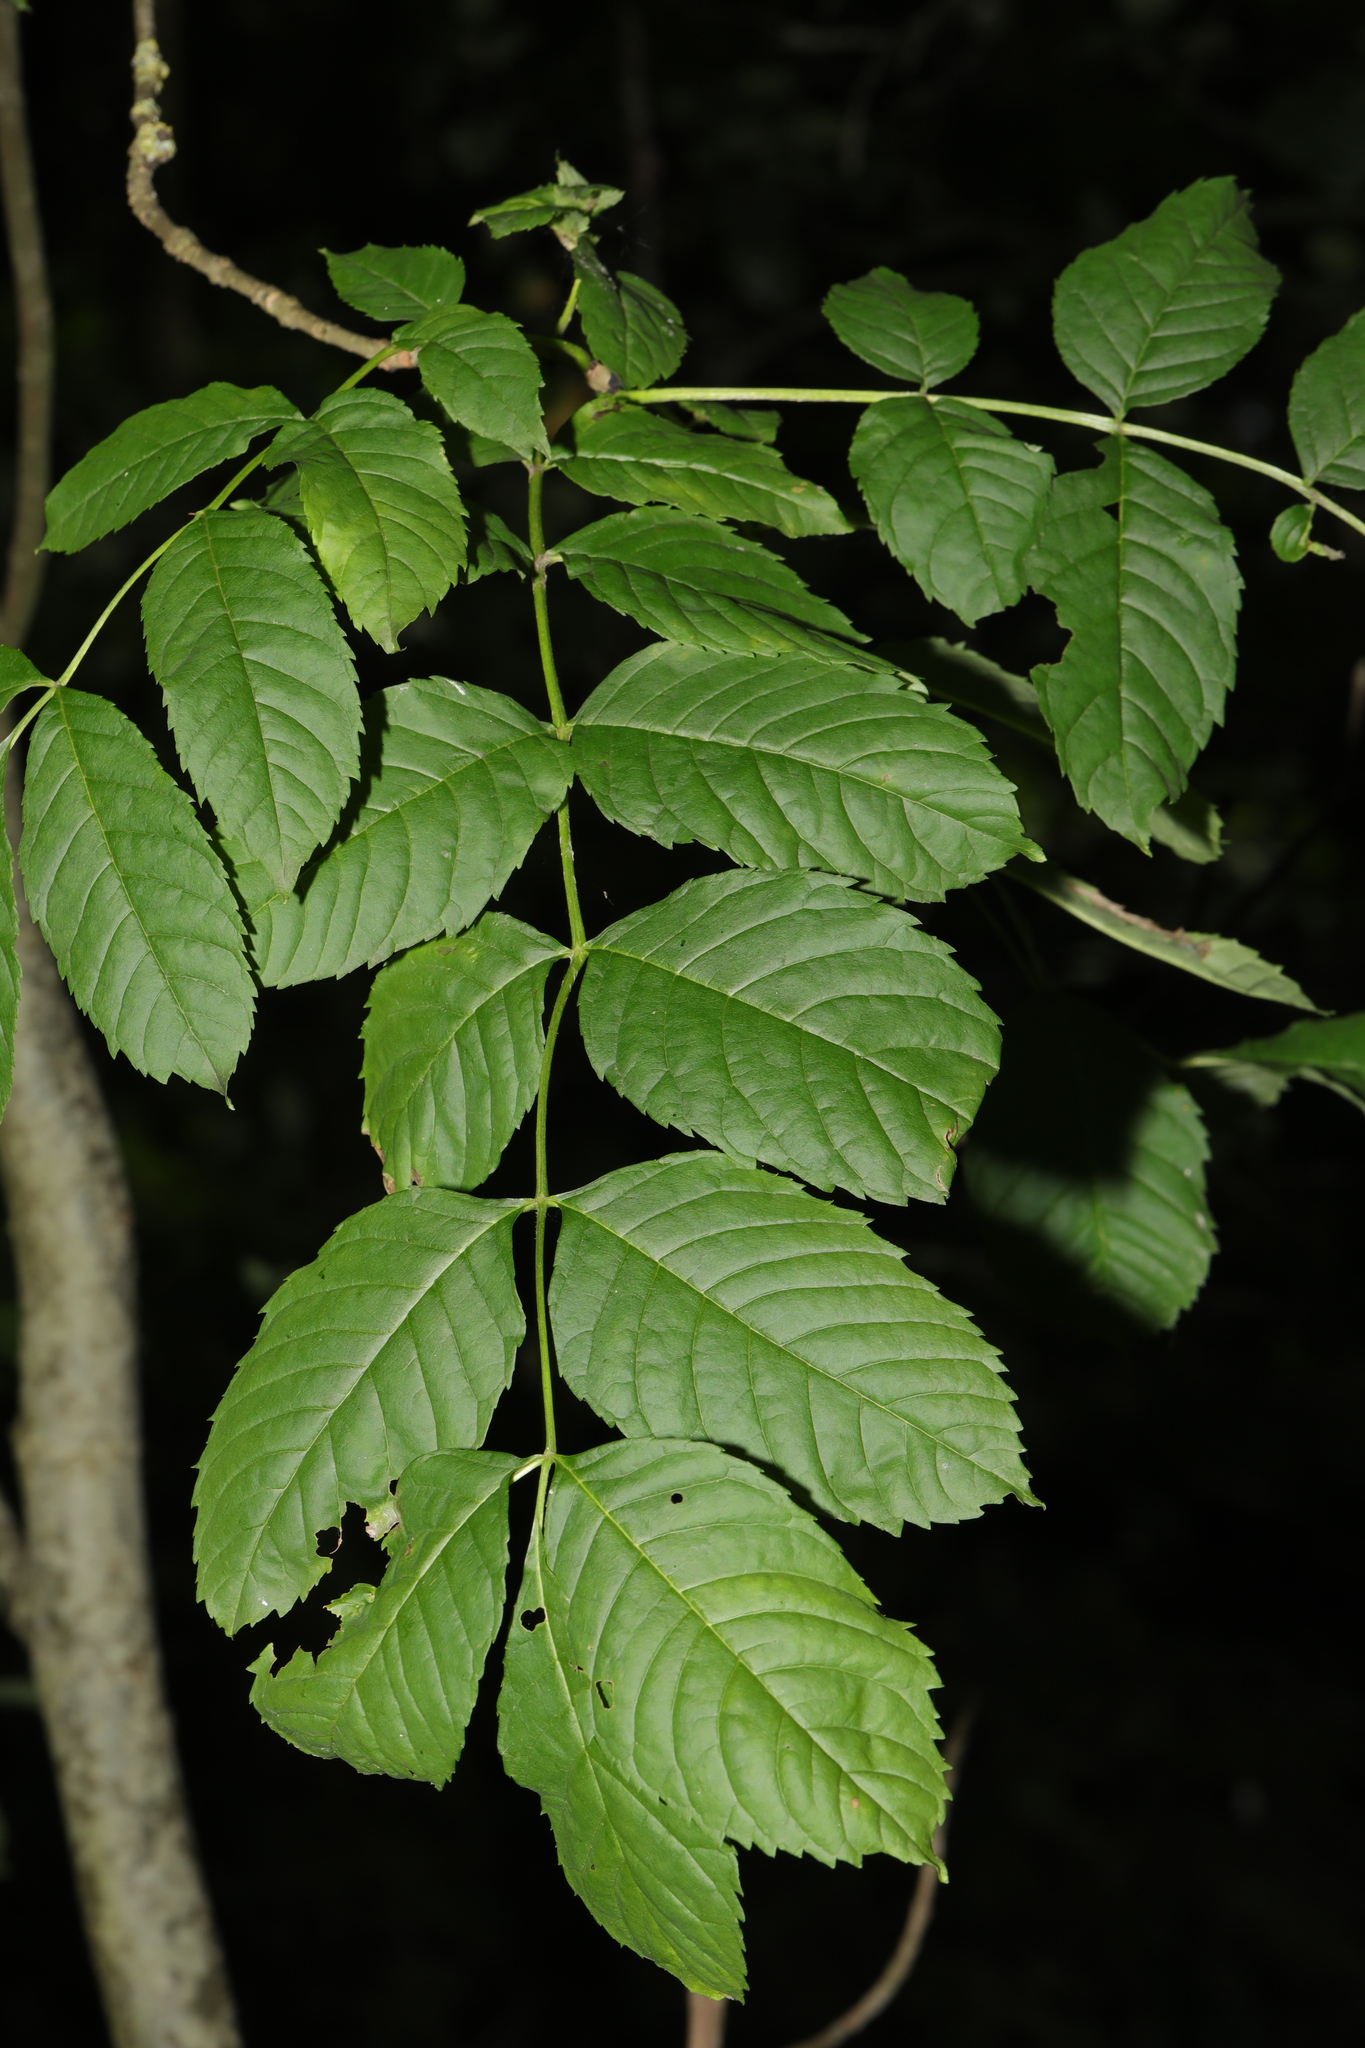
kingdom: Plantae
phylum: Tracheophyta
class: Magnoliopsida
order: Lamiales
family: Oleaceae
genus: Fraxinus
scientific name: Fraxinus excelsior
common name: European ash
